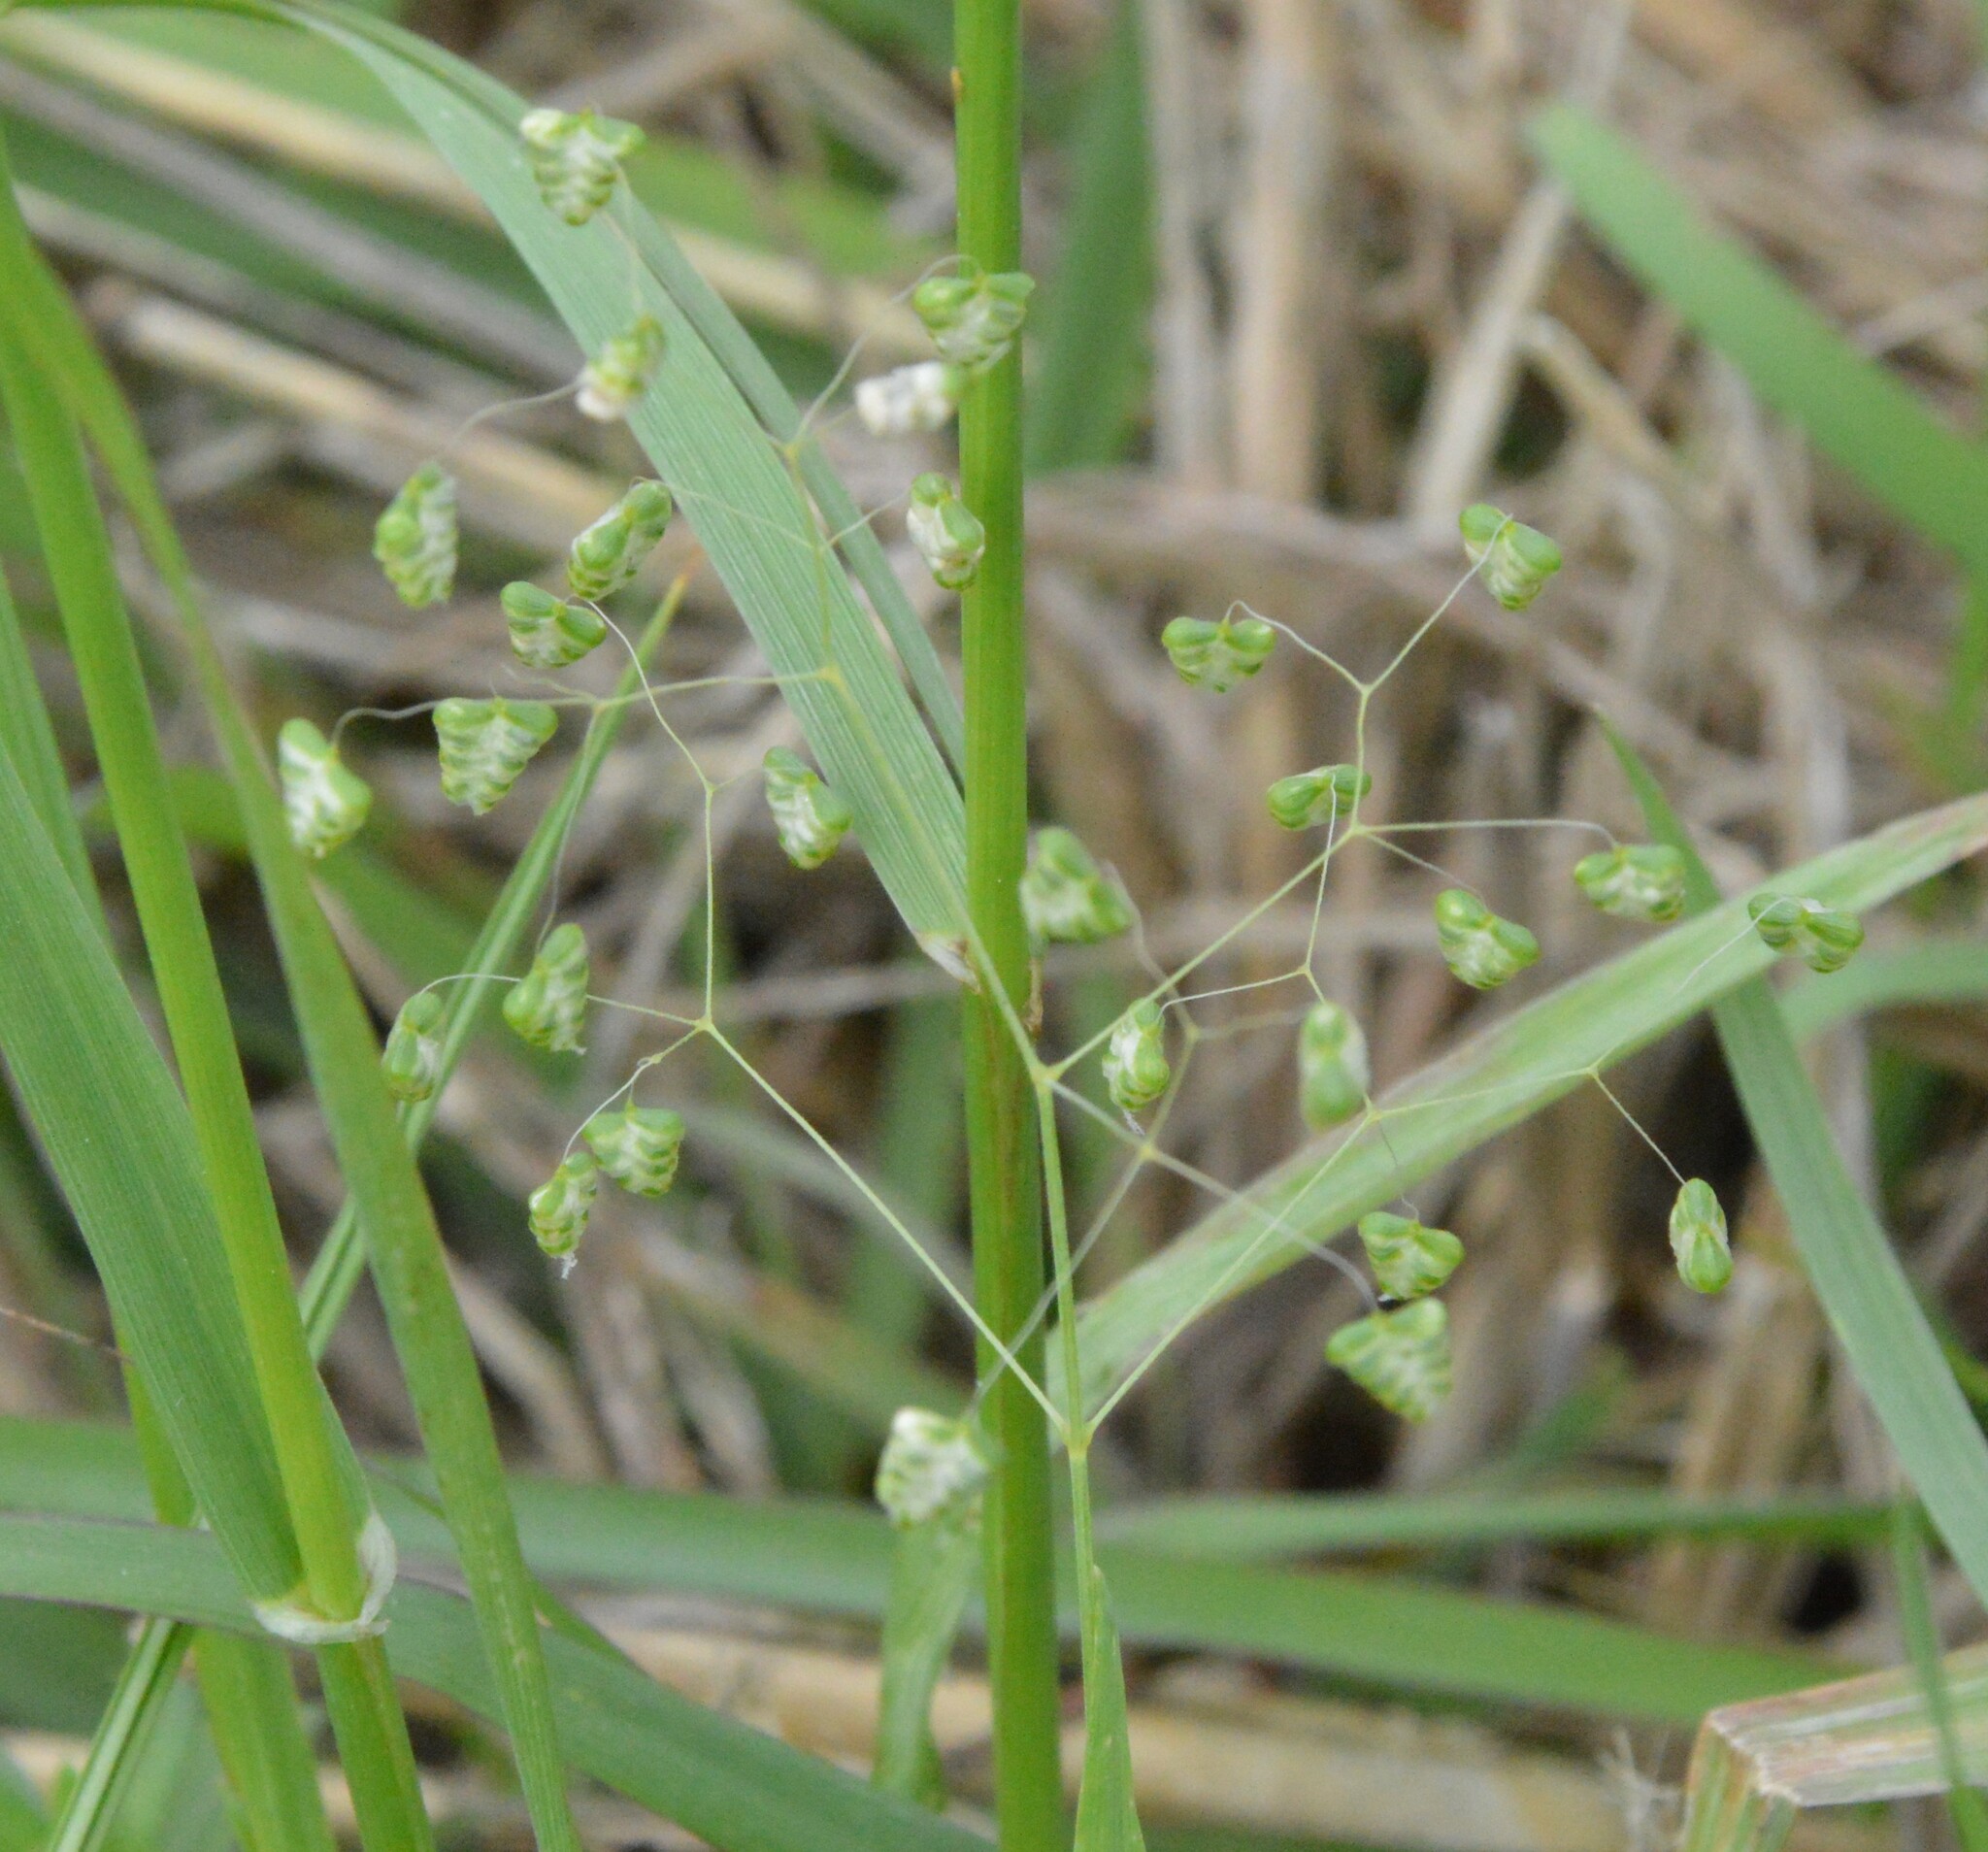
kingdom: Plantae
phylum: Tracheophyta
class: Liliopsida
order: Poales
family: Poaceae
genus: Briza
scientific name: Briza minor
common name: Lesser quaking-grass
